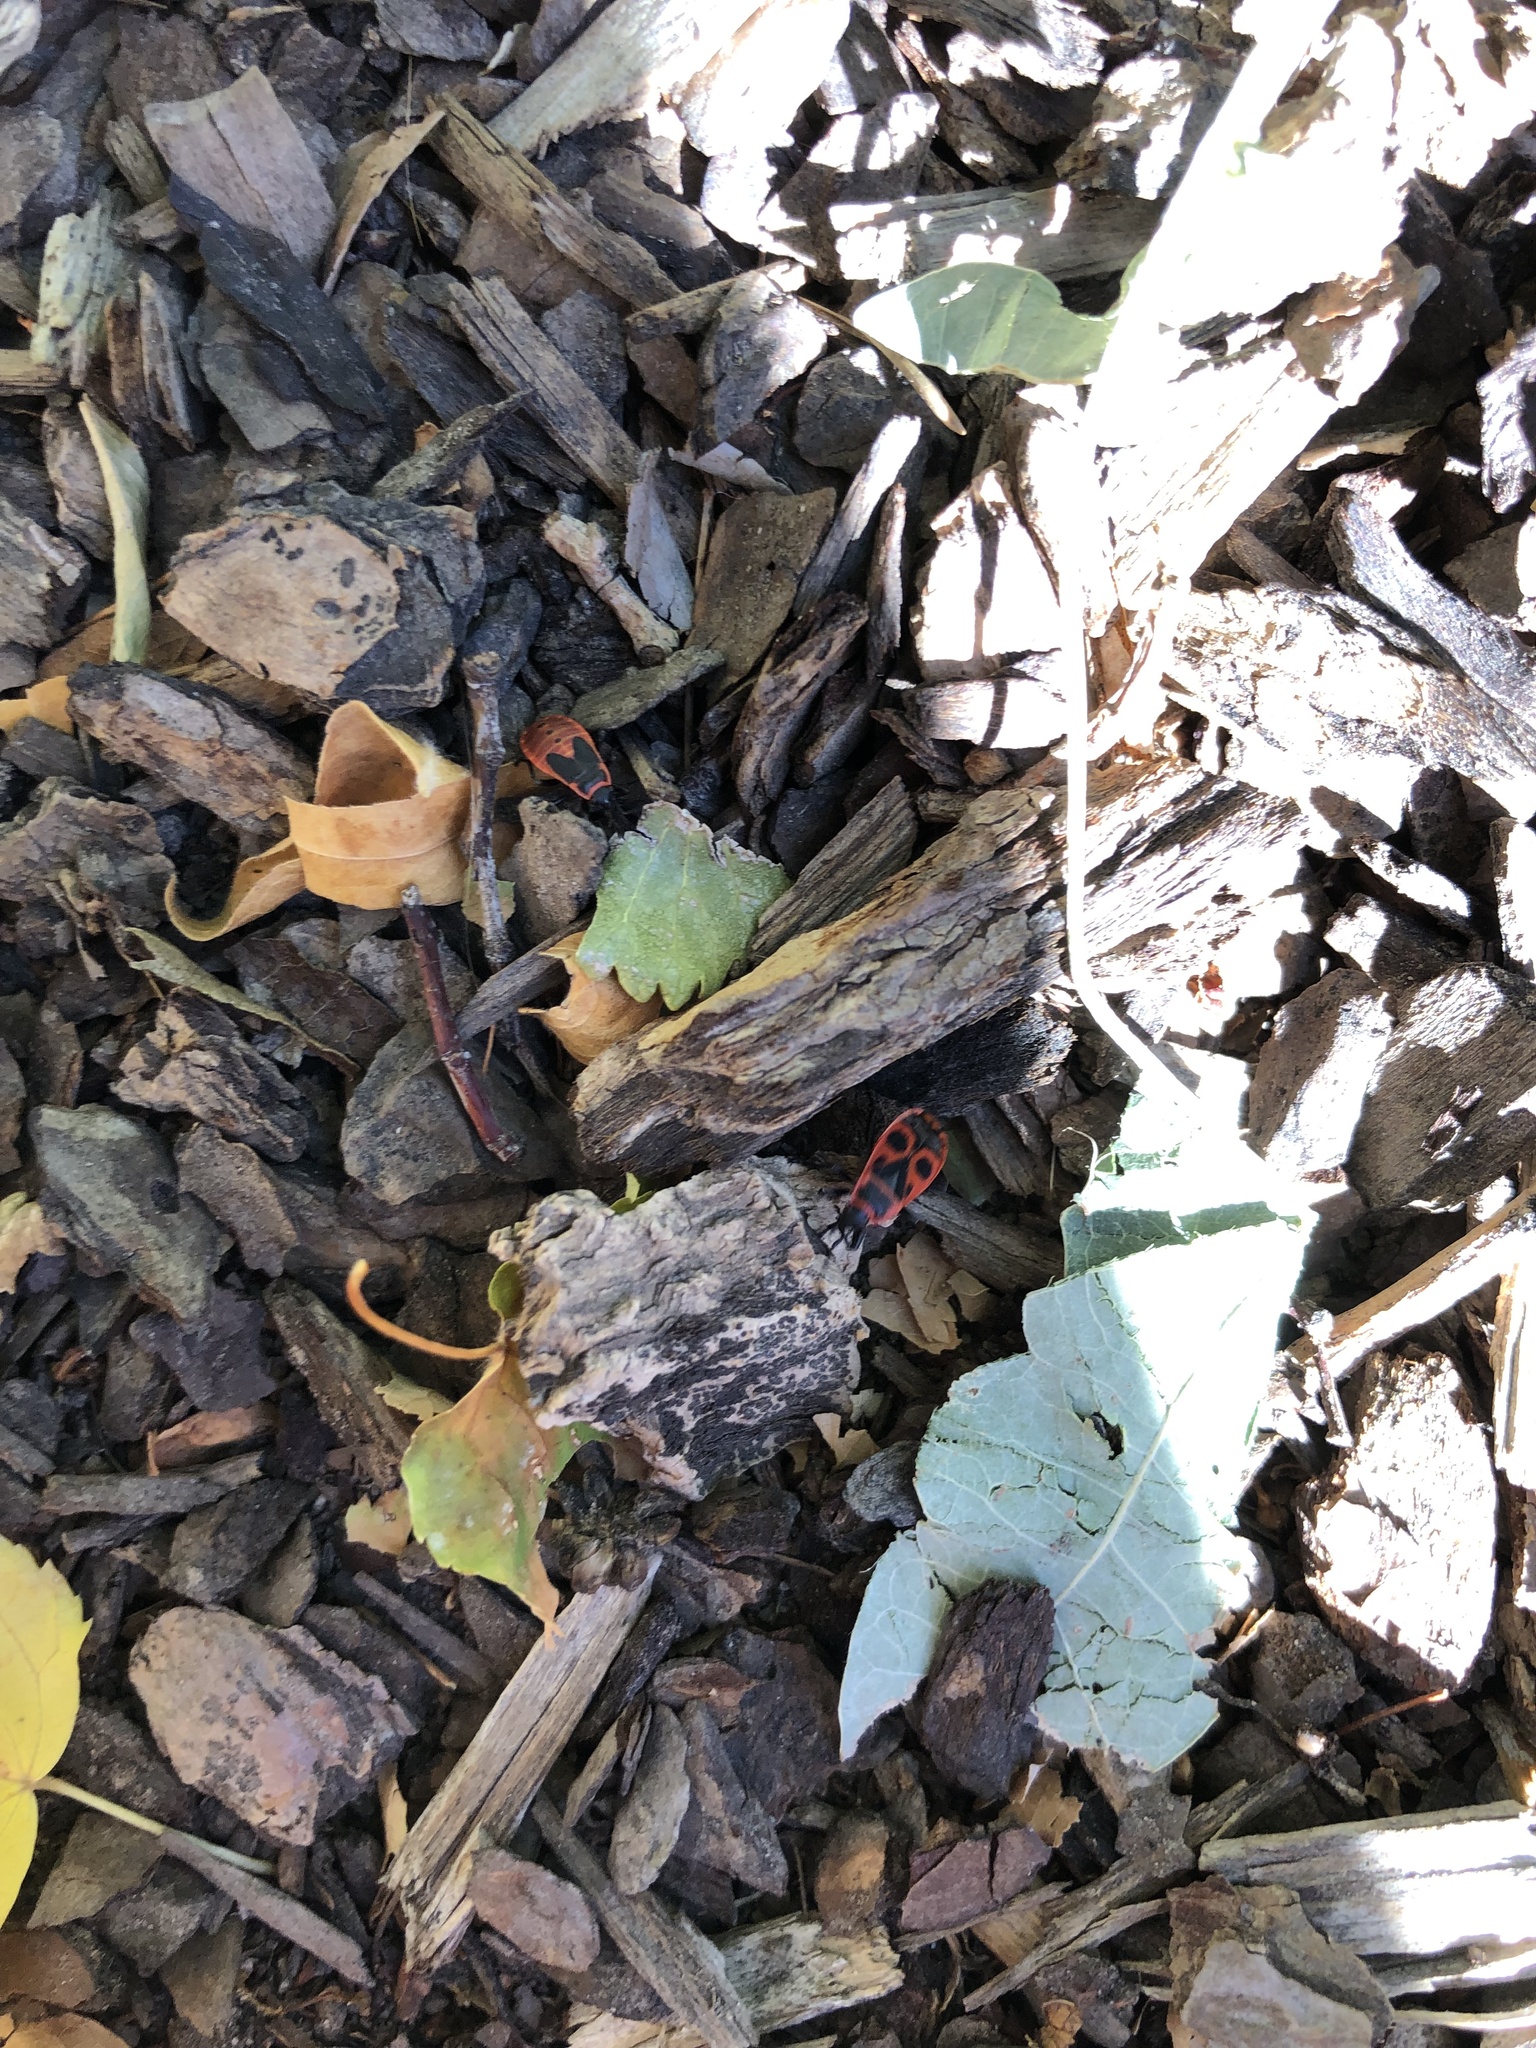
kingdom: Animalia
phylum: Arthropoda
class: Insecta
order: Hemiptera
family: Pyrrhocoridae
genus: Pyrrhocoris
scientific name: Pyrrhocoris apterus
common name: Firebug
